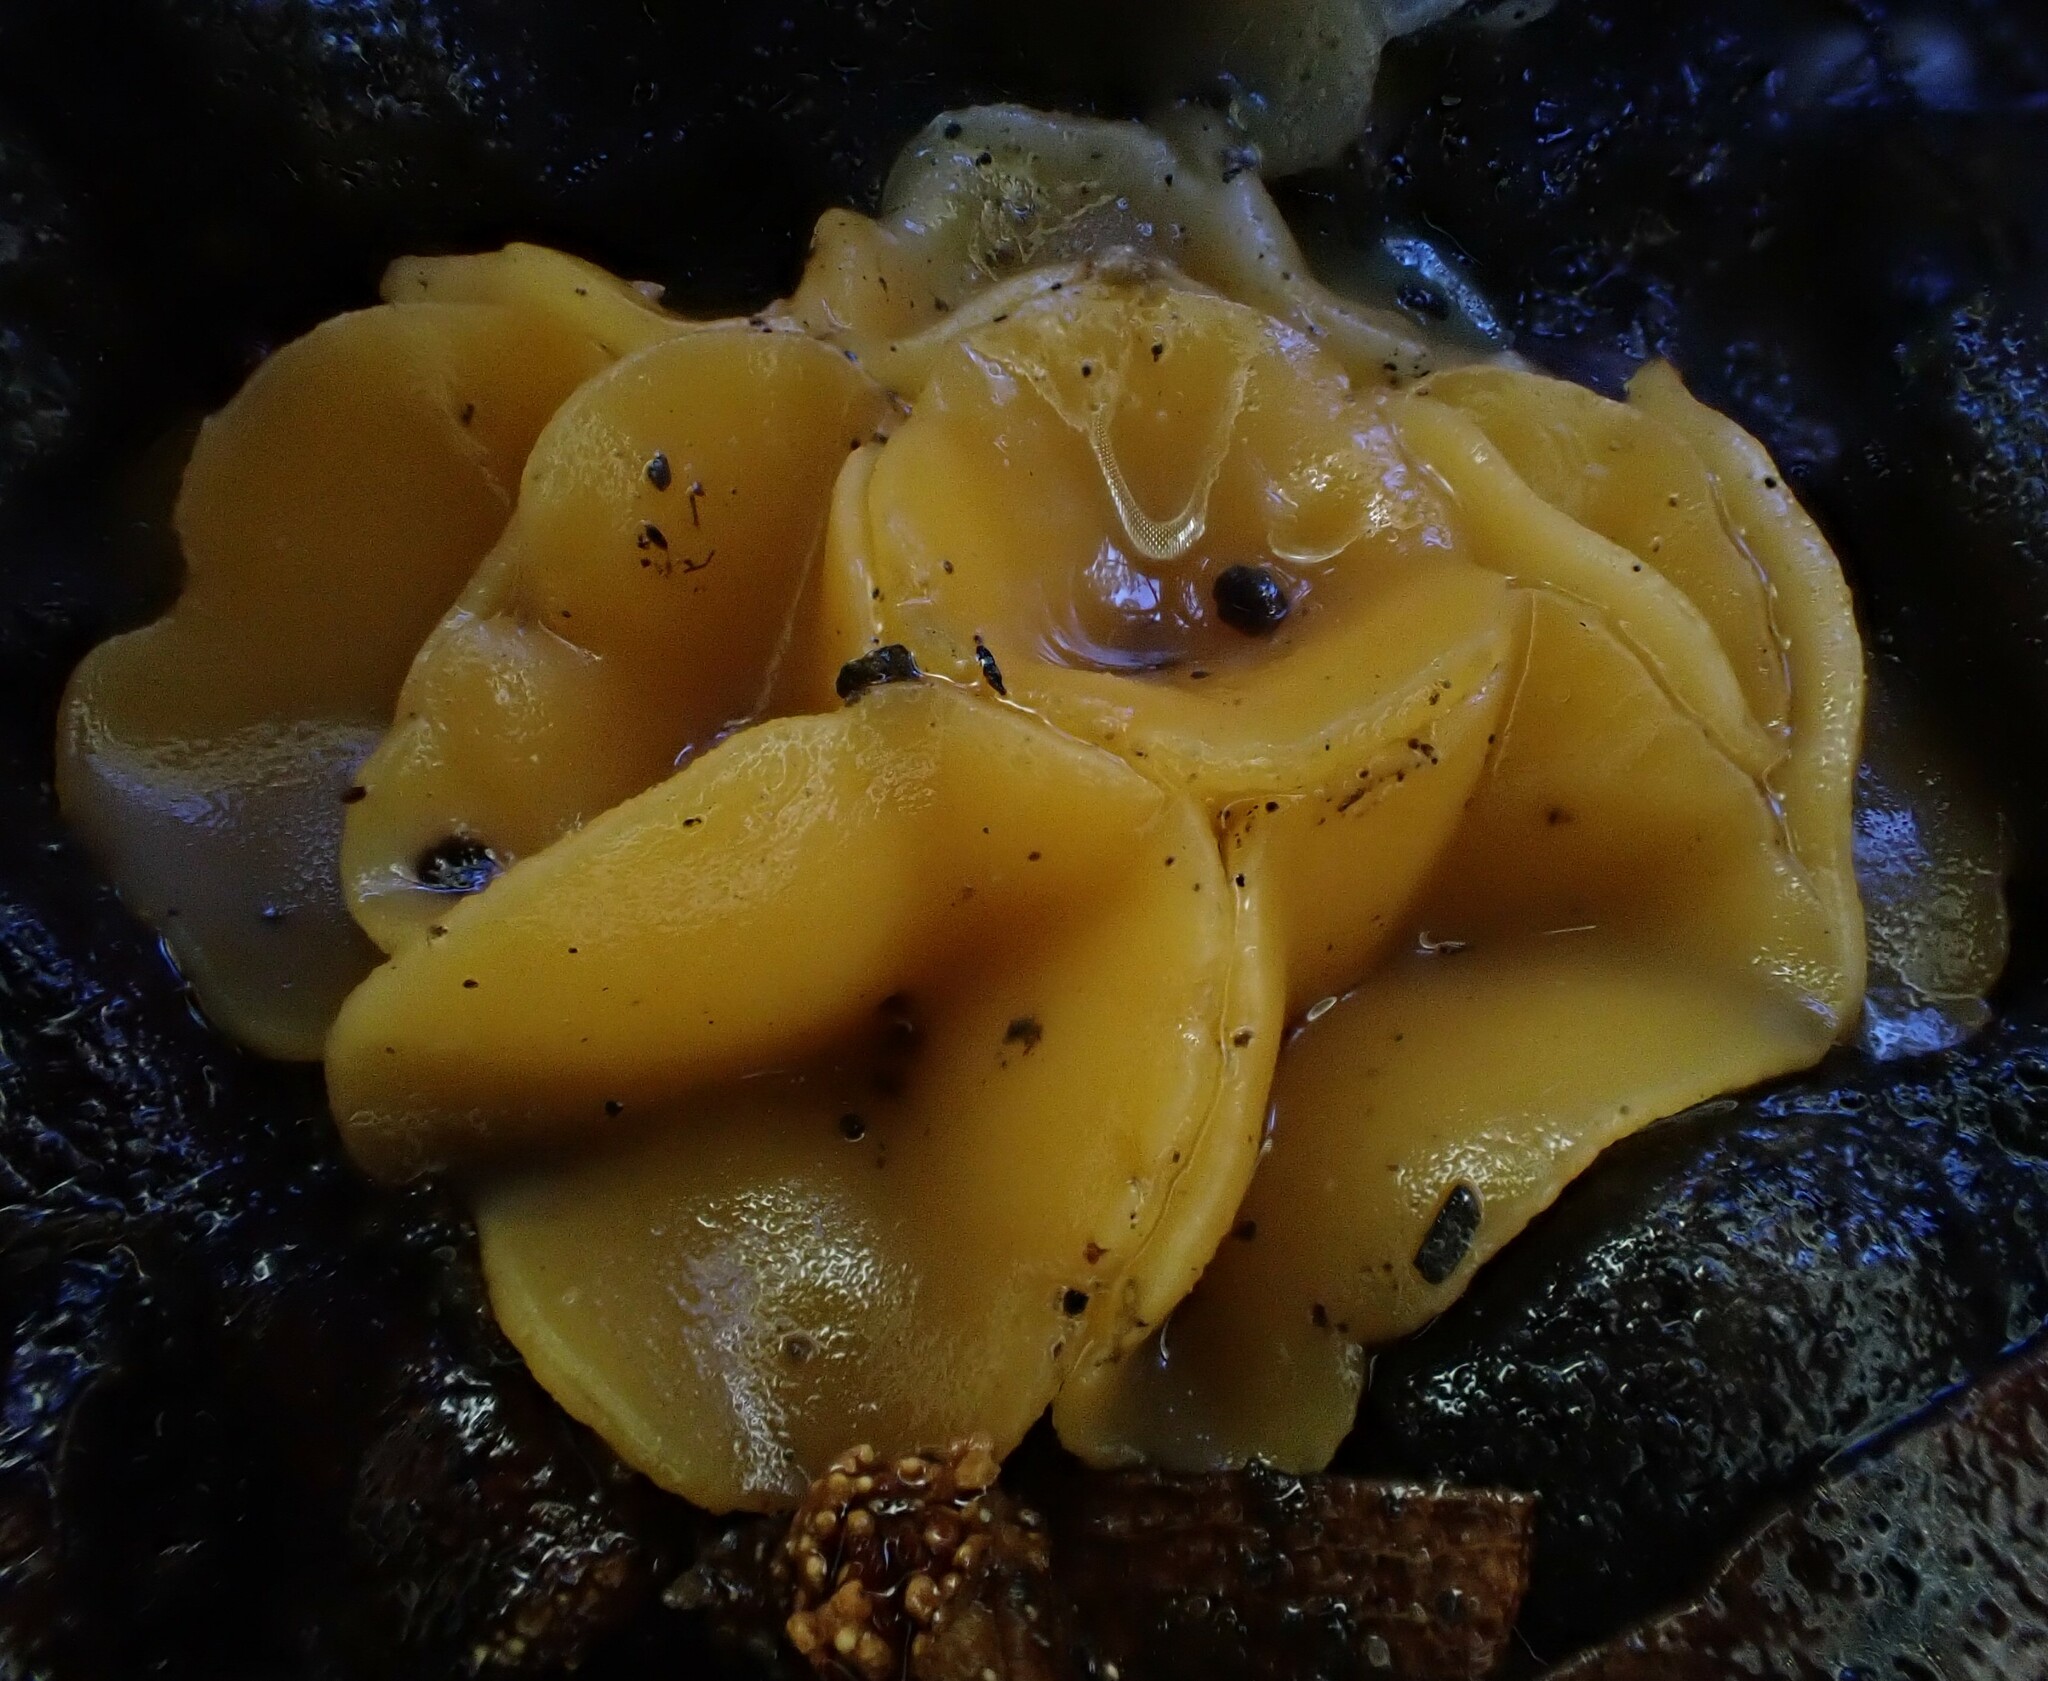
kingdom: Fungi
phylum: Ascomycota
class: Leotiomycetes
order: Helotiales
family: Helotiaceae
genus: Phaeohelotium
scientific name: Phaeohelotium baileyanum
